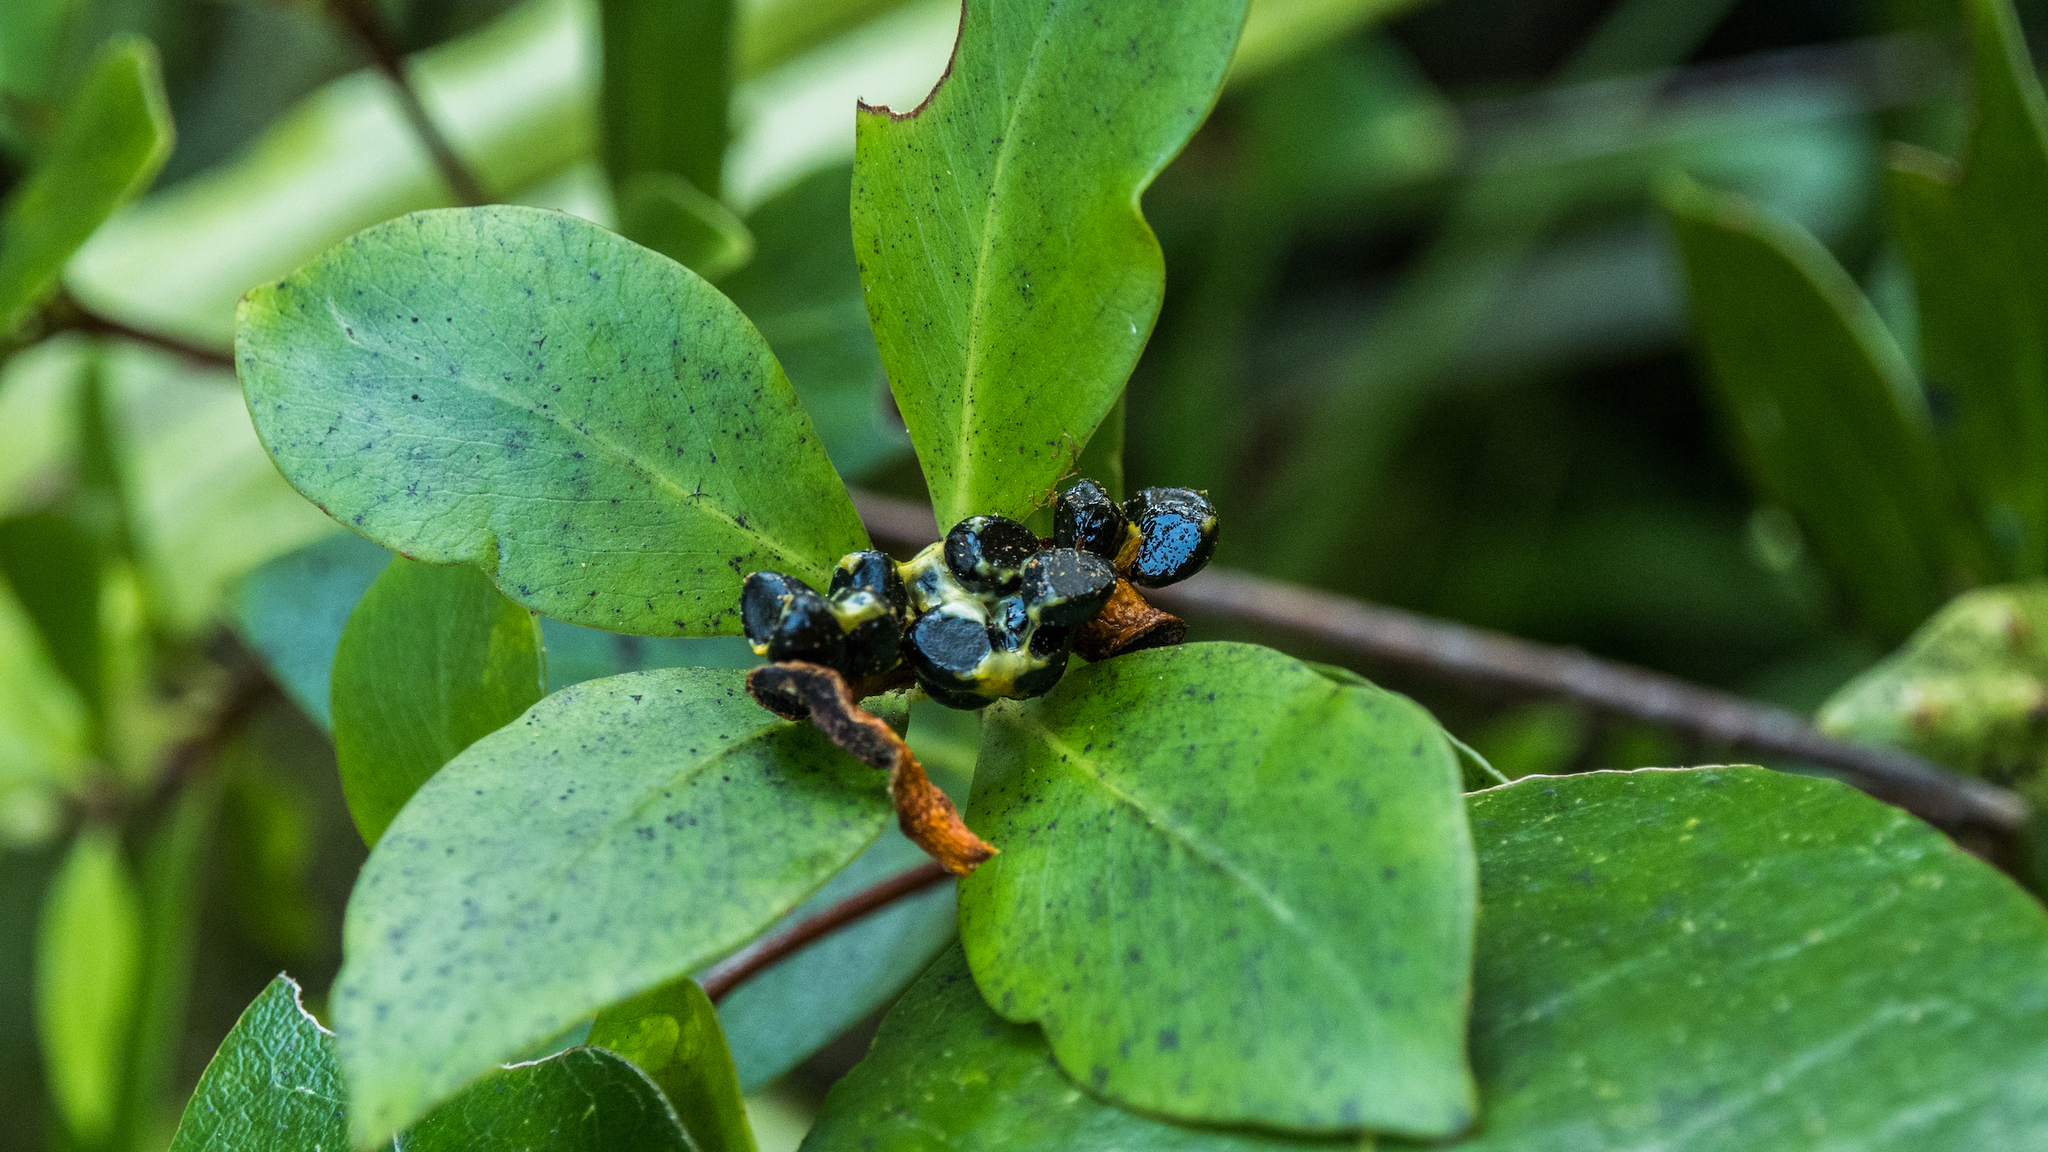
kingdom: Plantae
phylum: Tracheophyta
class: Magnoliopsida
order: Apiales
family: Pittosporaceae
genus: Pittosporum
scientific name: Pittosporum cornifolium
